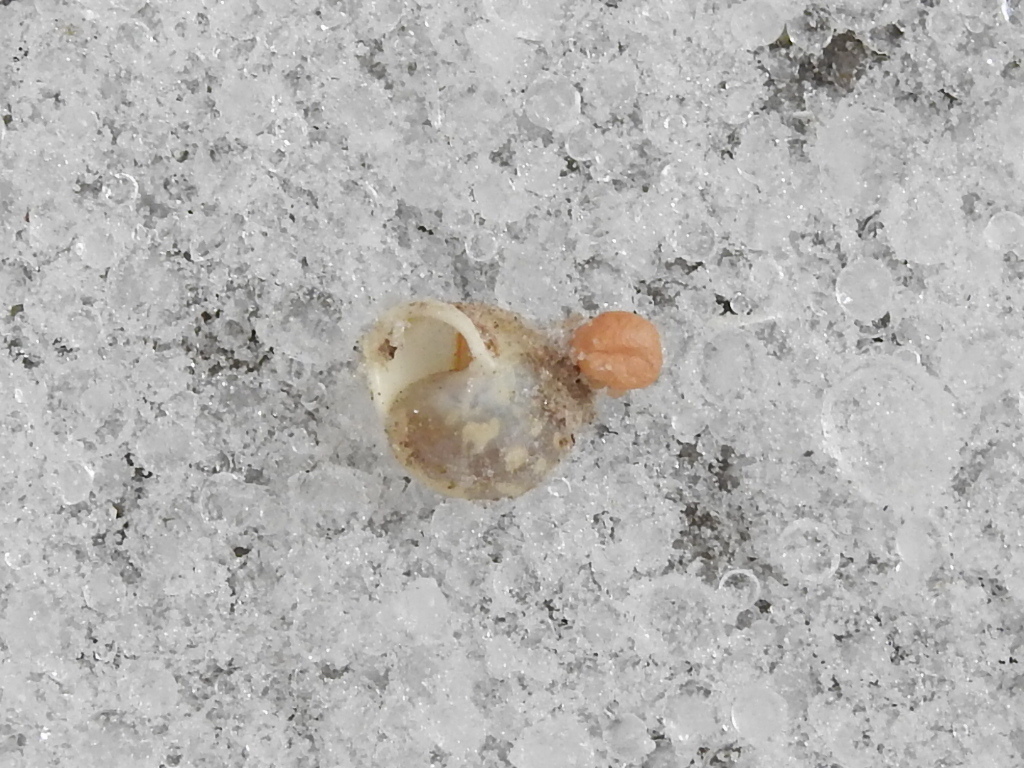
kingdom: Animalia
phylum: Mollusca
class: Gastropoda
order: Cycloneritida
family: Helicinidae
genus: Helicina
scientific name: Helicina orbiculata
